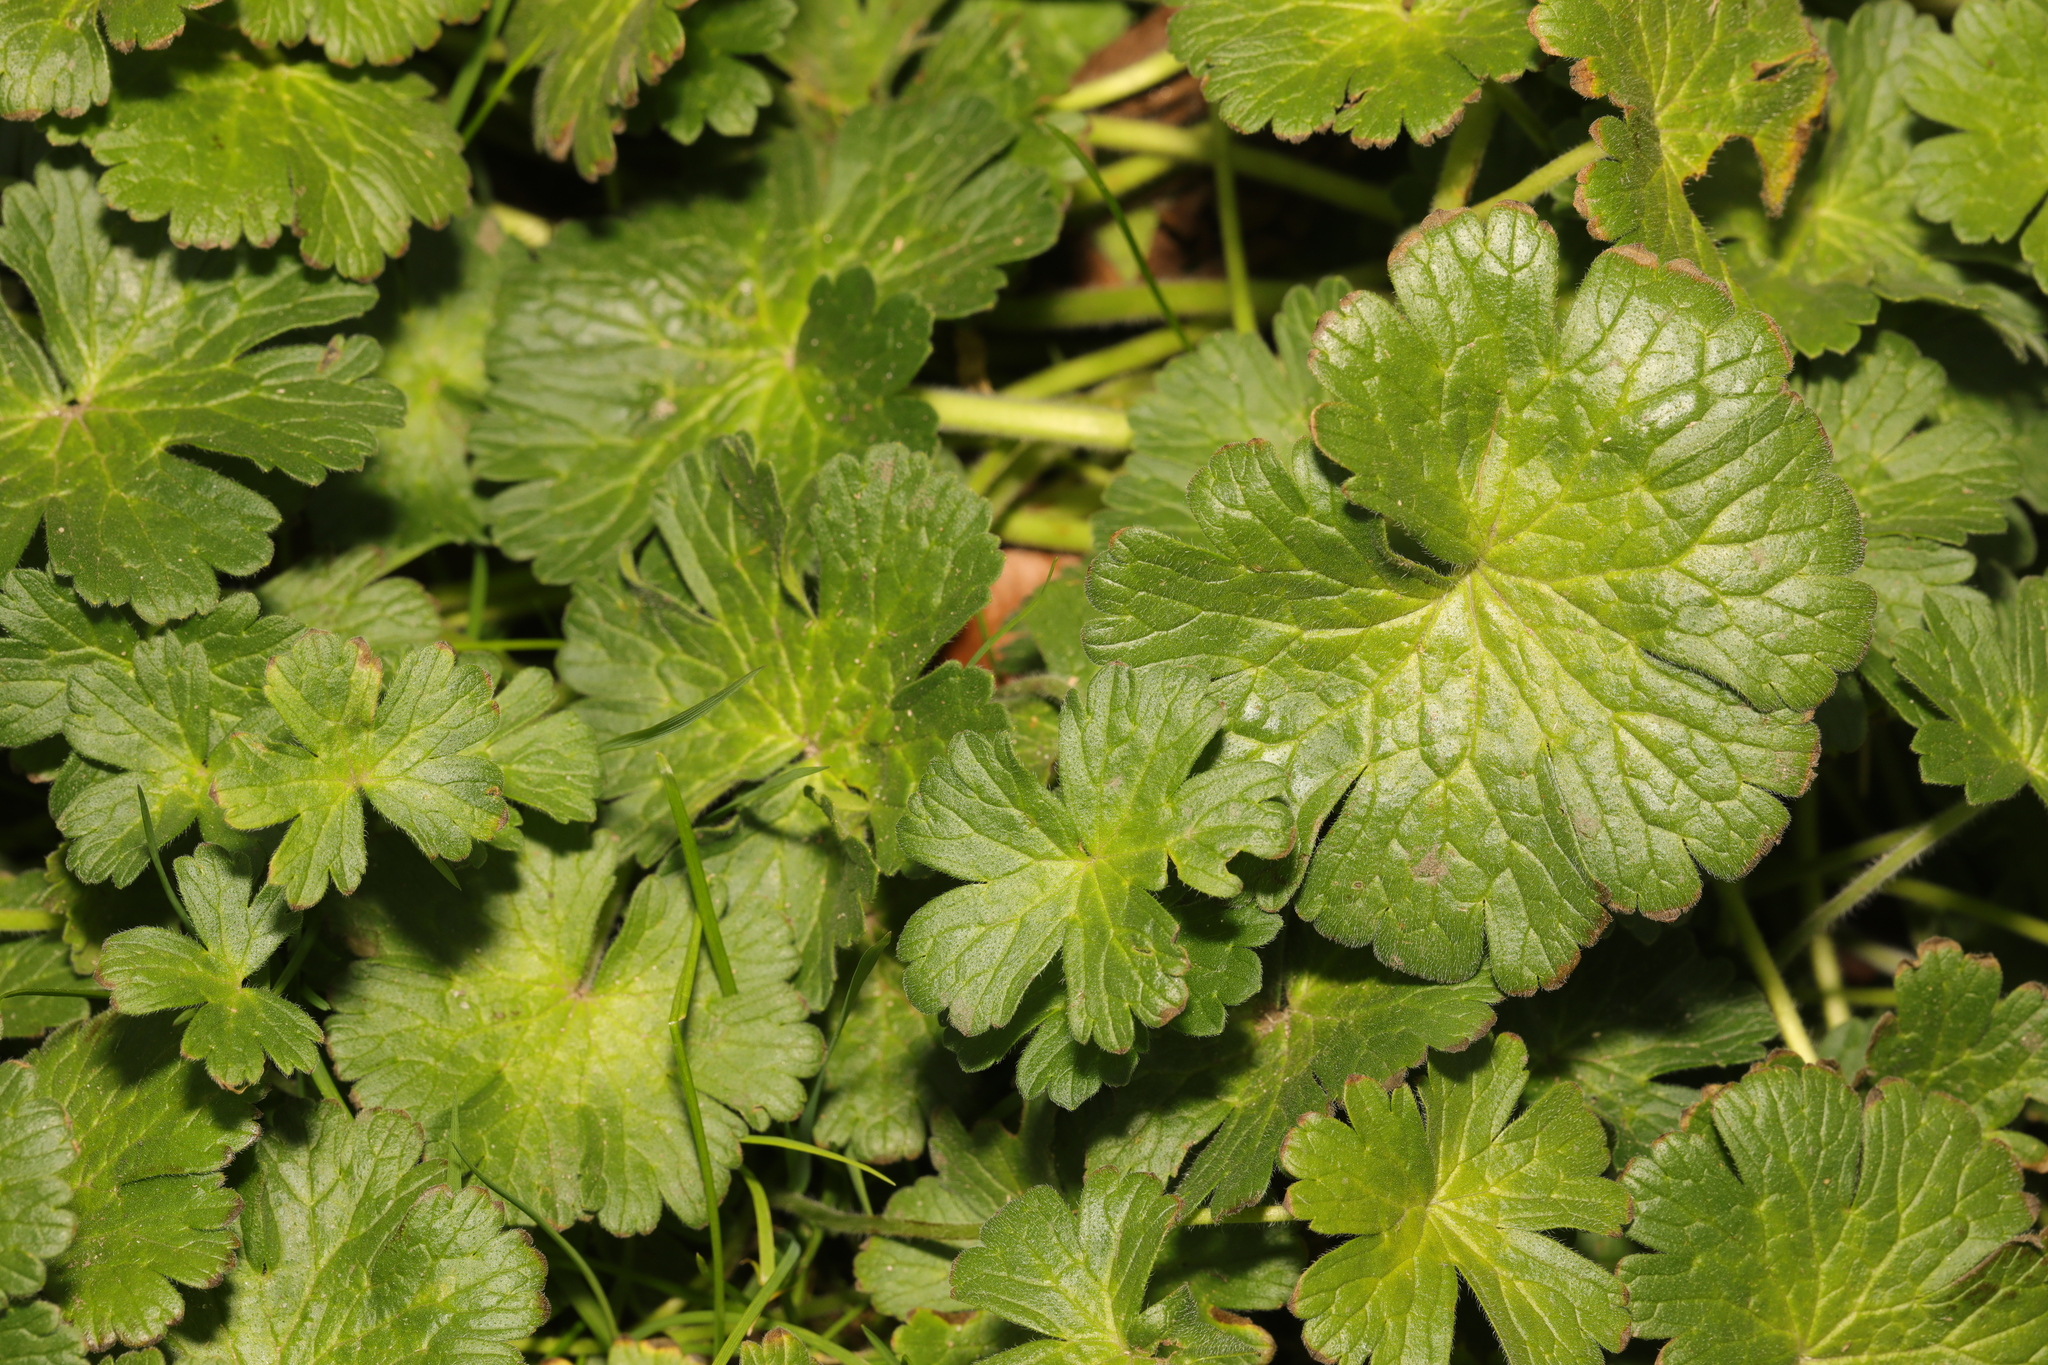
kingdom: Plantae
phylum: Tracheophyta
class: Magnoliopsida
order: Geraniales
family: Geraniaceae
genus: Geranium
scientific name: Geranium pyrenaicum
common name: Hedgerow crane's-bill
